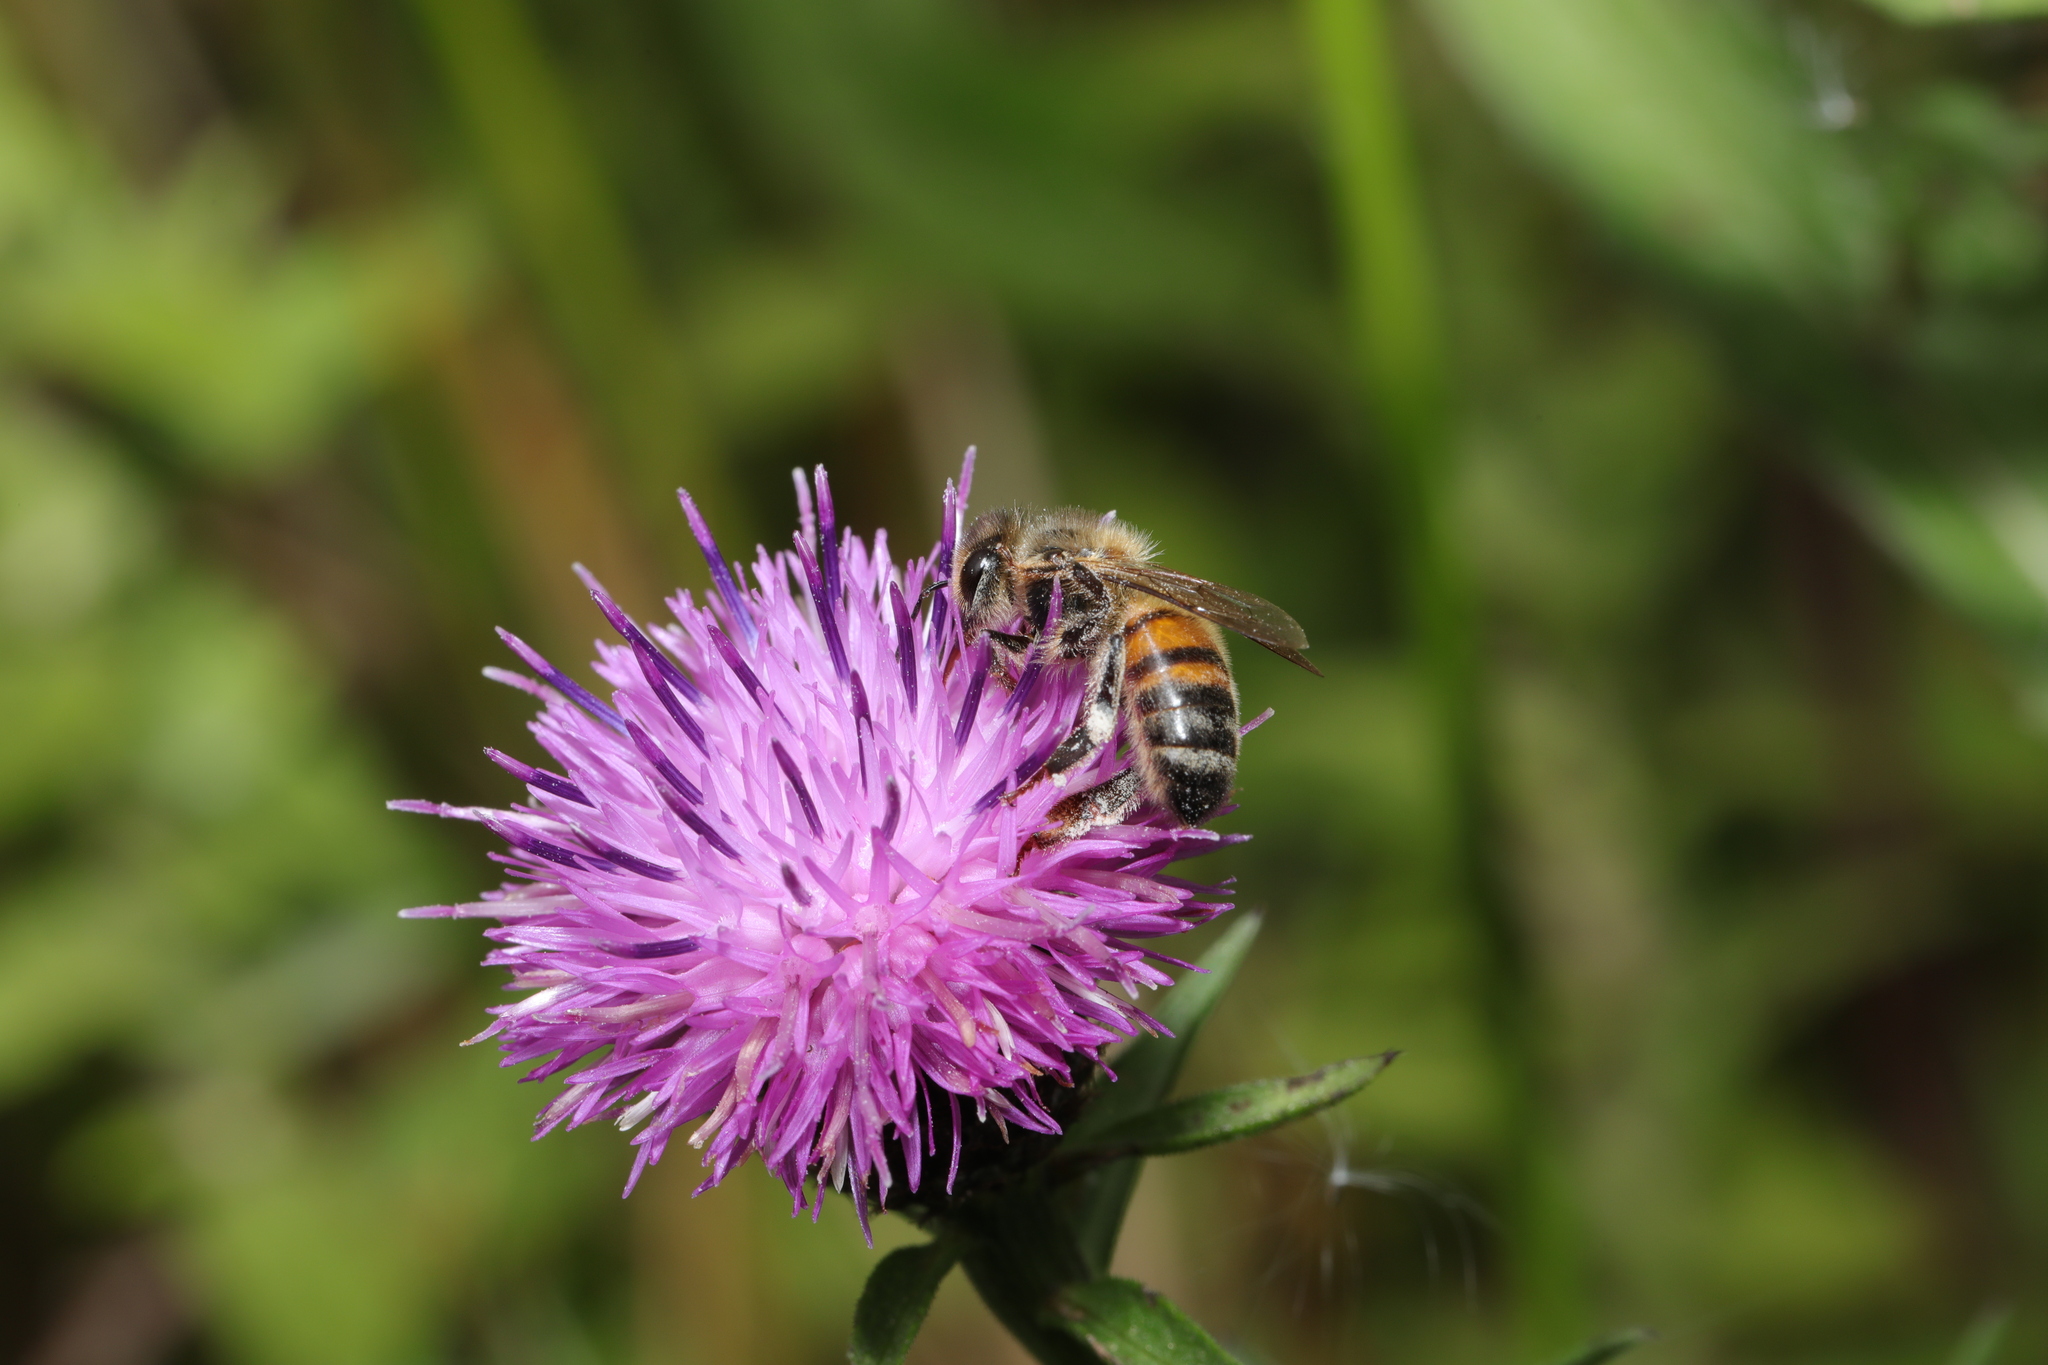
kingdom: Animalia
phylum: Arthropoda
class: Insecta
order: Hymenoptera
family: Apidae
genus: Apis
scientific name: Apis mellifera
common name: Honey bee
